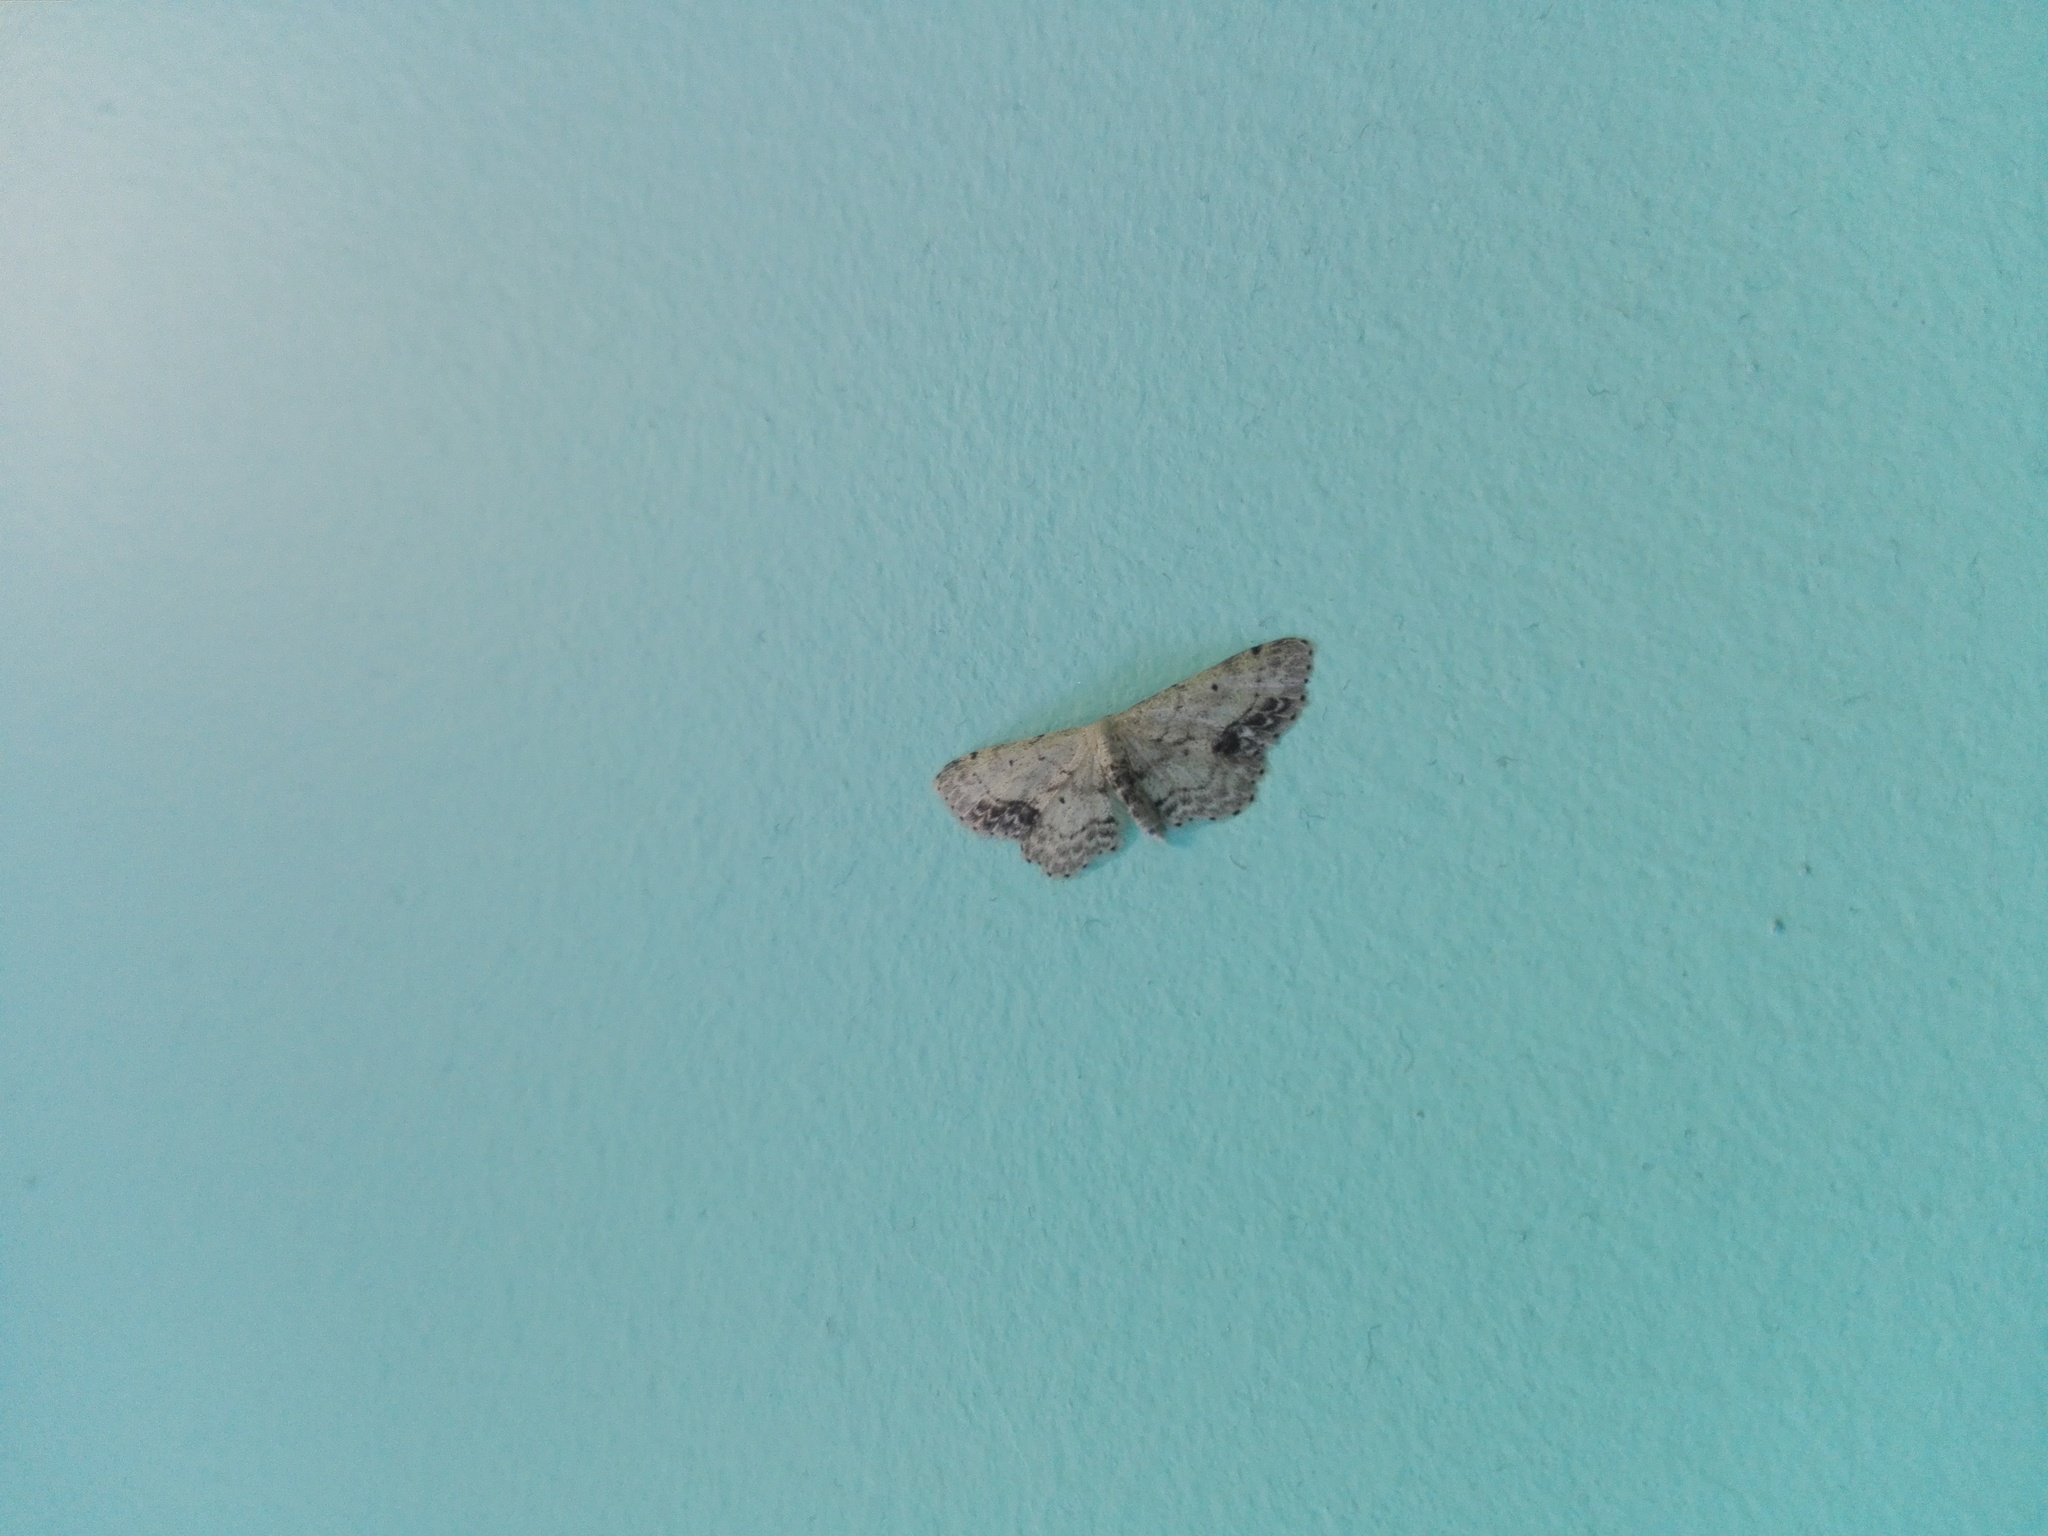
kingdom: Animalia
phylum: Arthropoda
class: Insecta
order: Lepidoptera
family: Geometridae
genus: Idaea
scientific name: Idaea dimidiata
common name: Single-dotted wave
